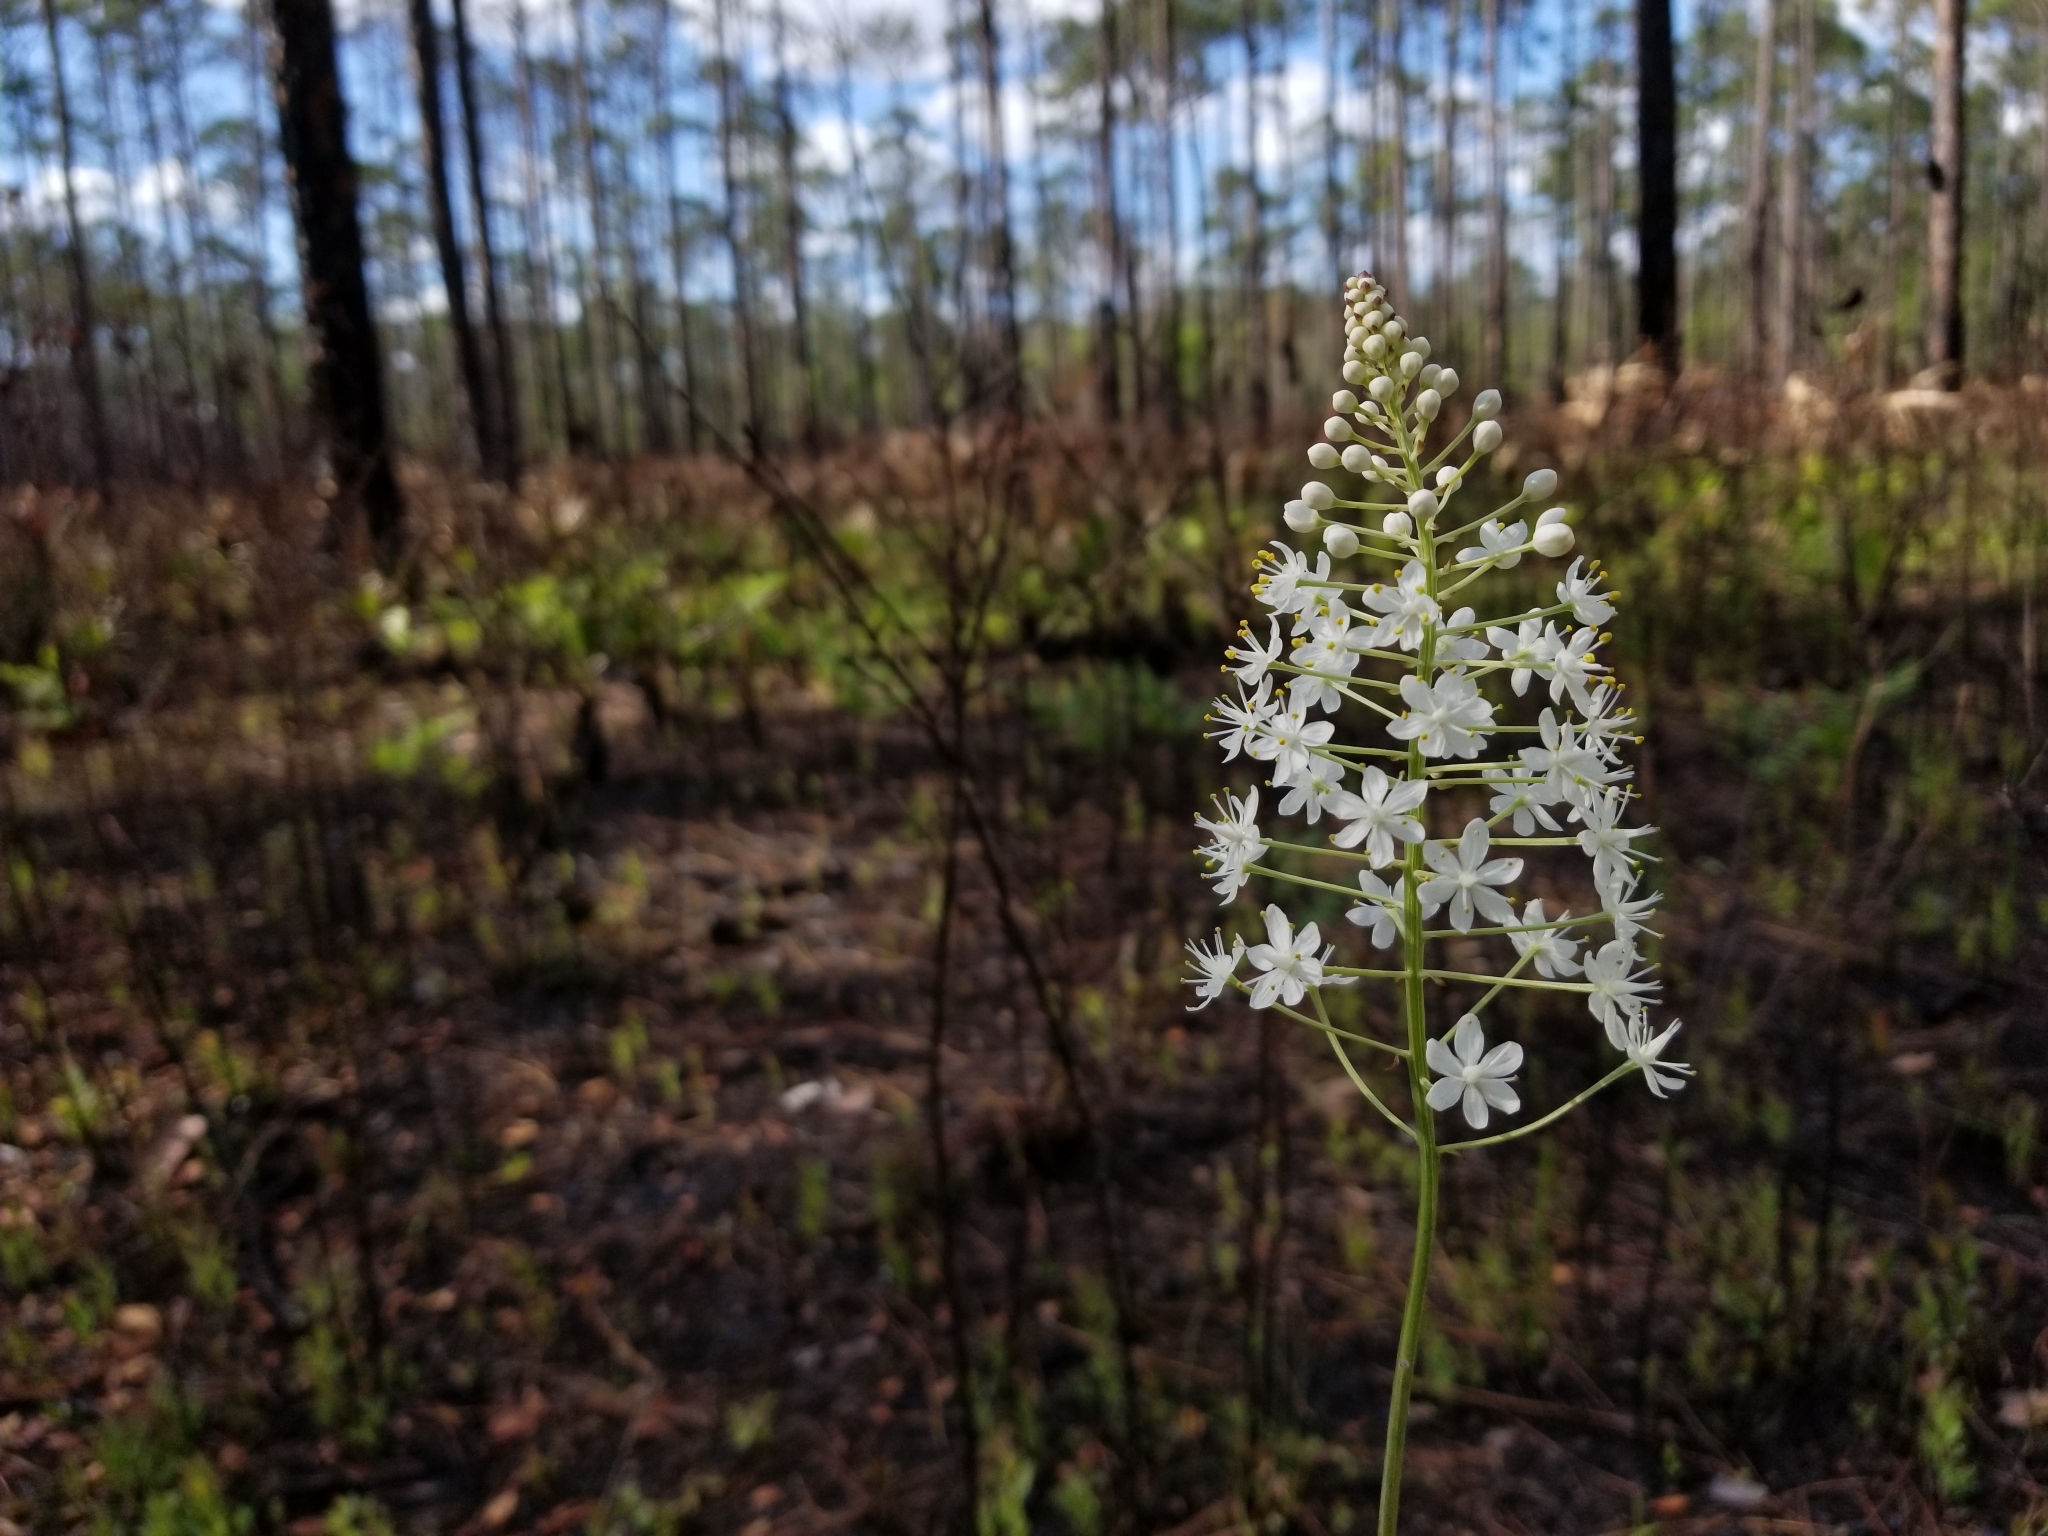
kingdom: Plantae
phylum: Tracheophyta
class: Liliopsida
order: Liliales
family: Melanthiaceae
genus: Stenanthium
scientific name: Stenanthium densum
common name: Crow-poison
